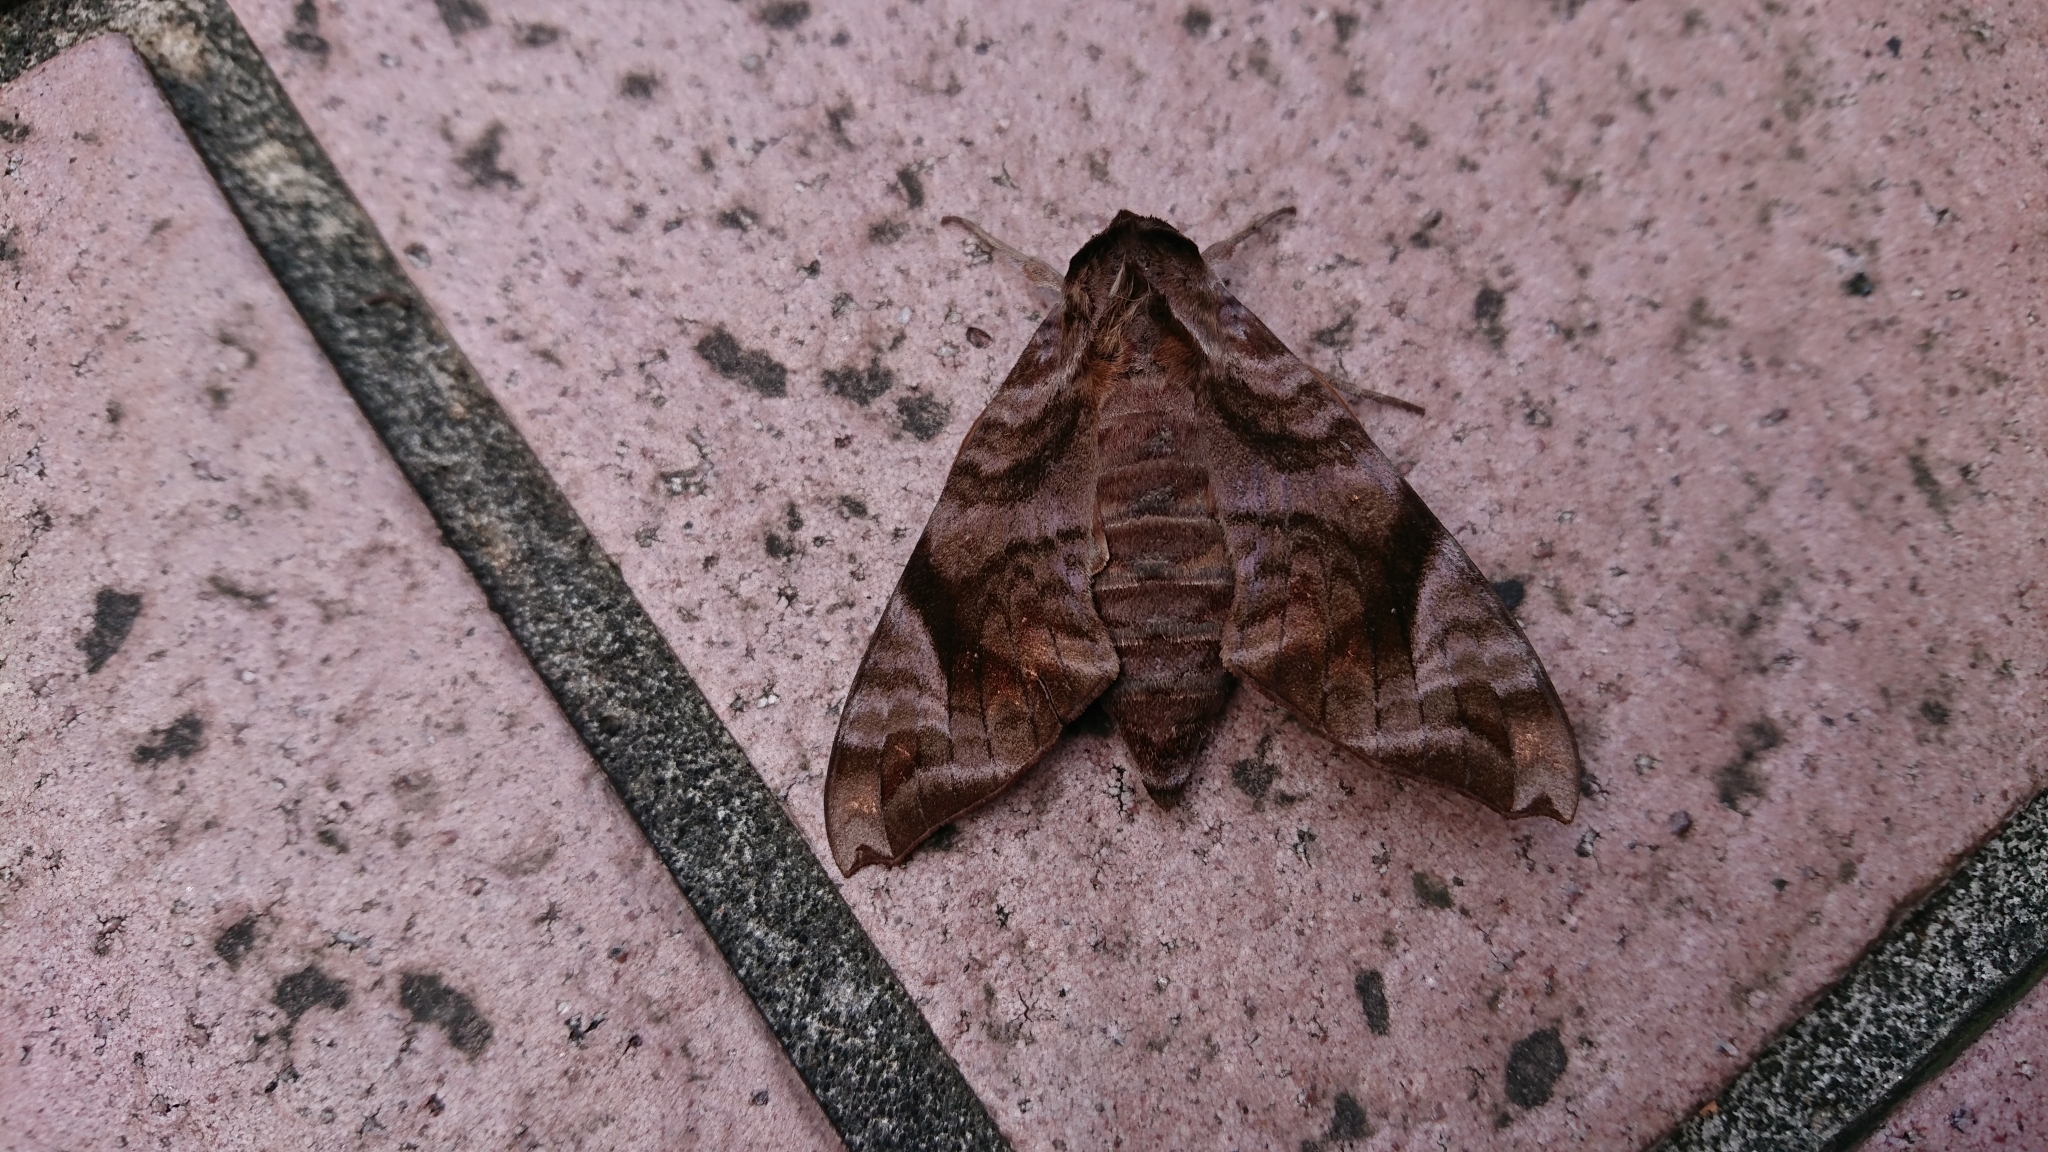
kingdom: Animalia
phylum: Arthropoda
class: Insecta
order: Lepidoptera
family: Sphingidae
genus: Acosmeryx
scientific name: Acosmeryx castanea
